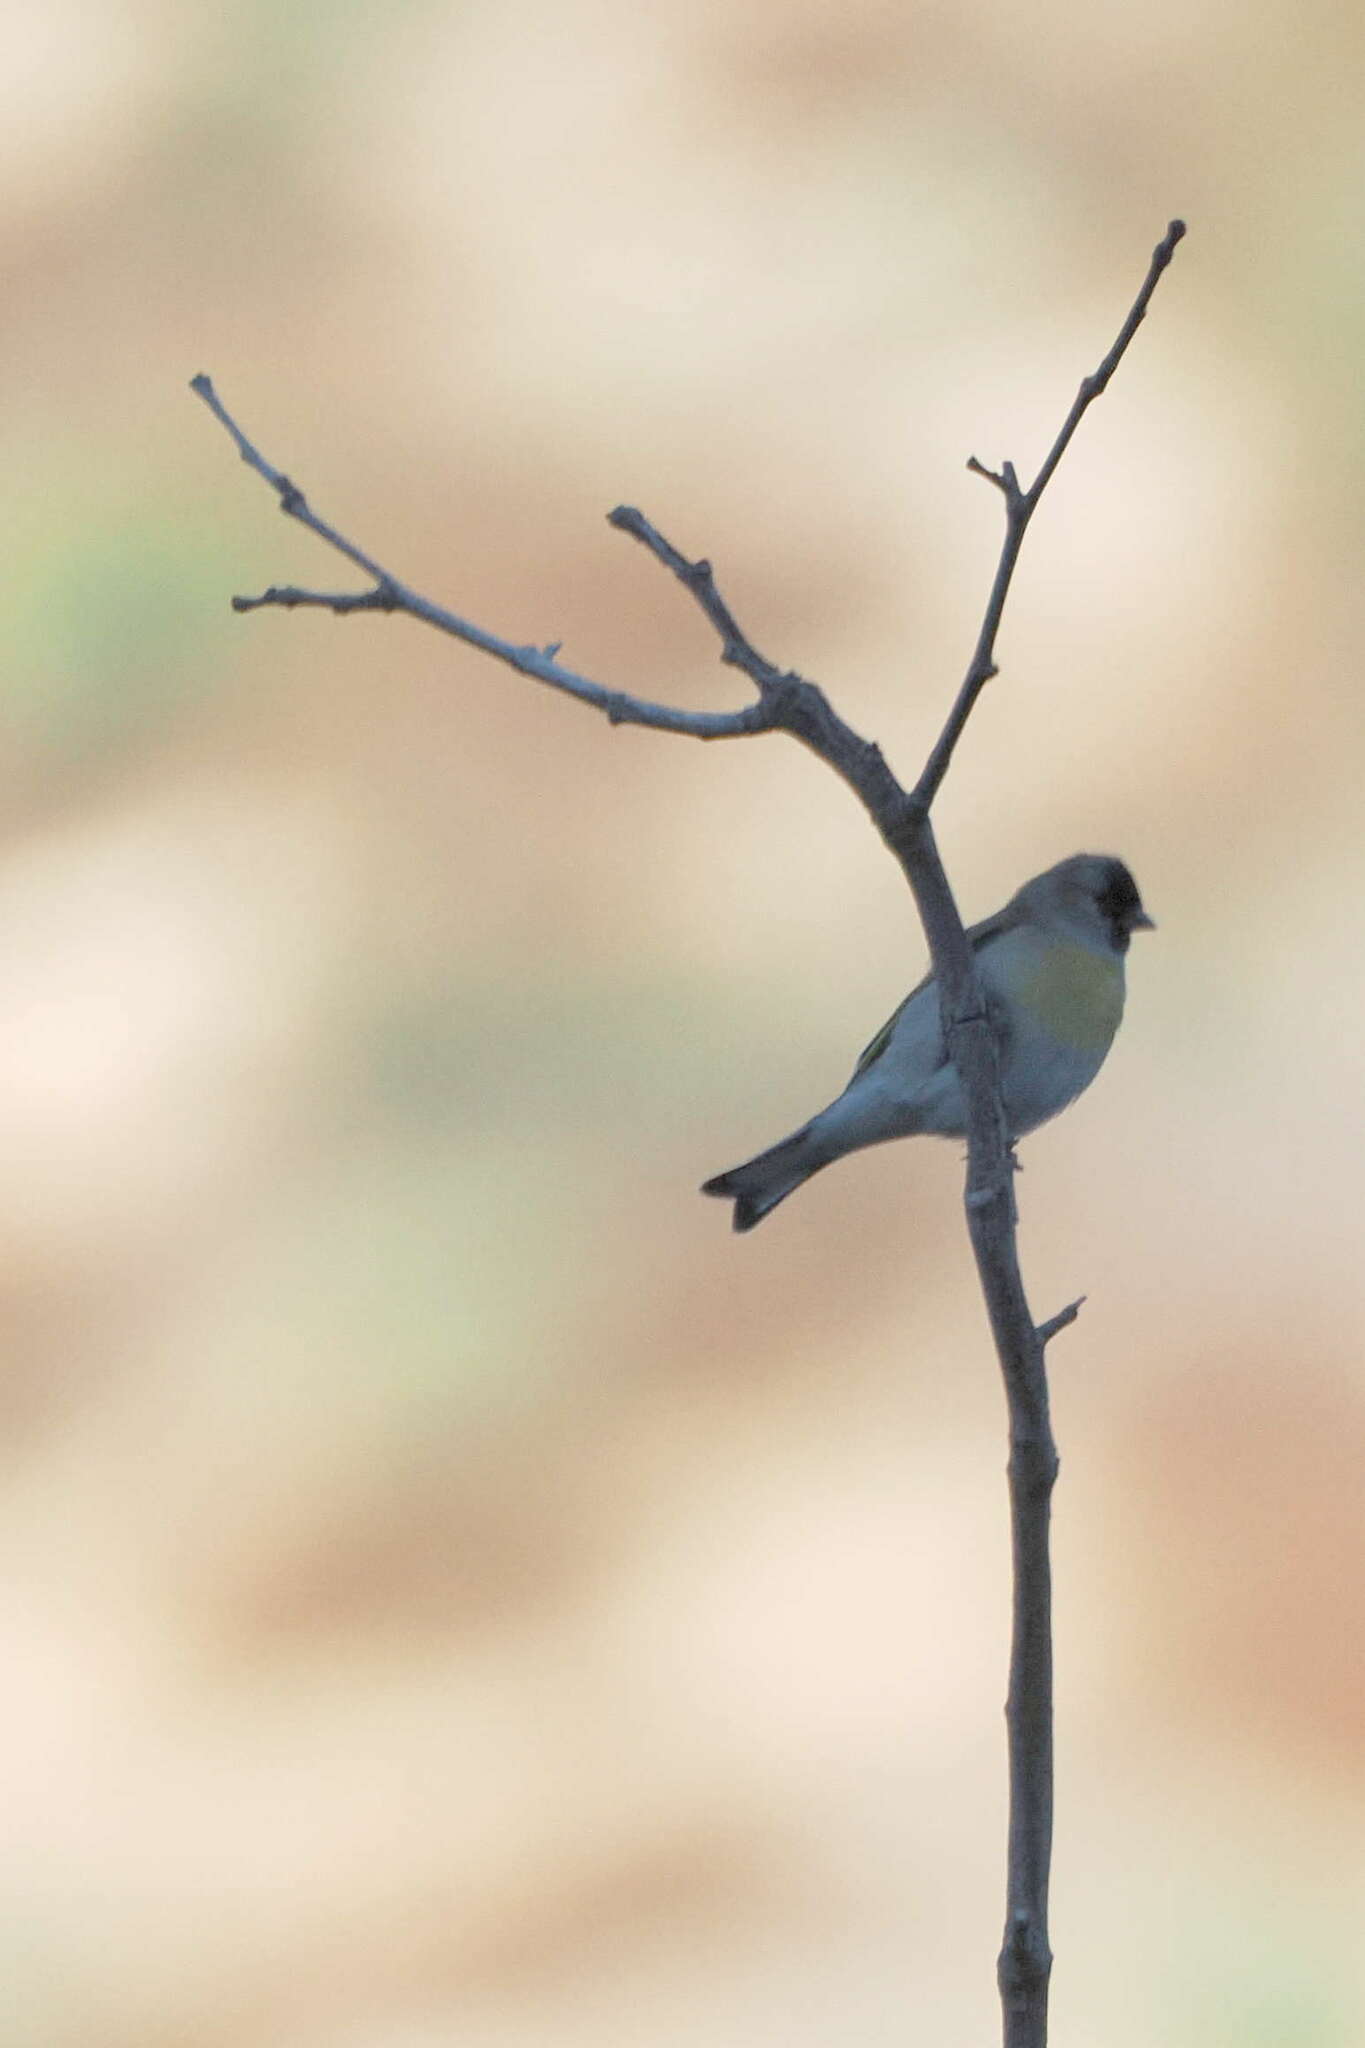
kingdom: Animalia
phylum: Chordata
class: Aves
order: Passeriformes
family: Fringillidae
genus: Spinus
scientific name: Spinus lawrencei
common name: Lawrence's goldfinch
